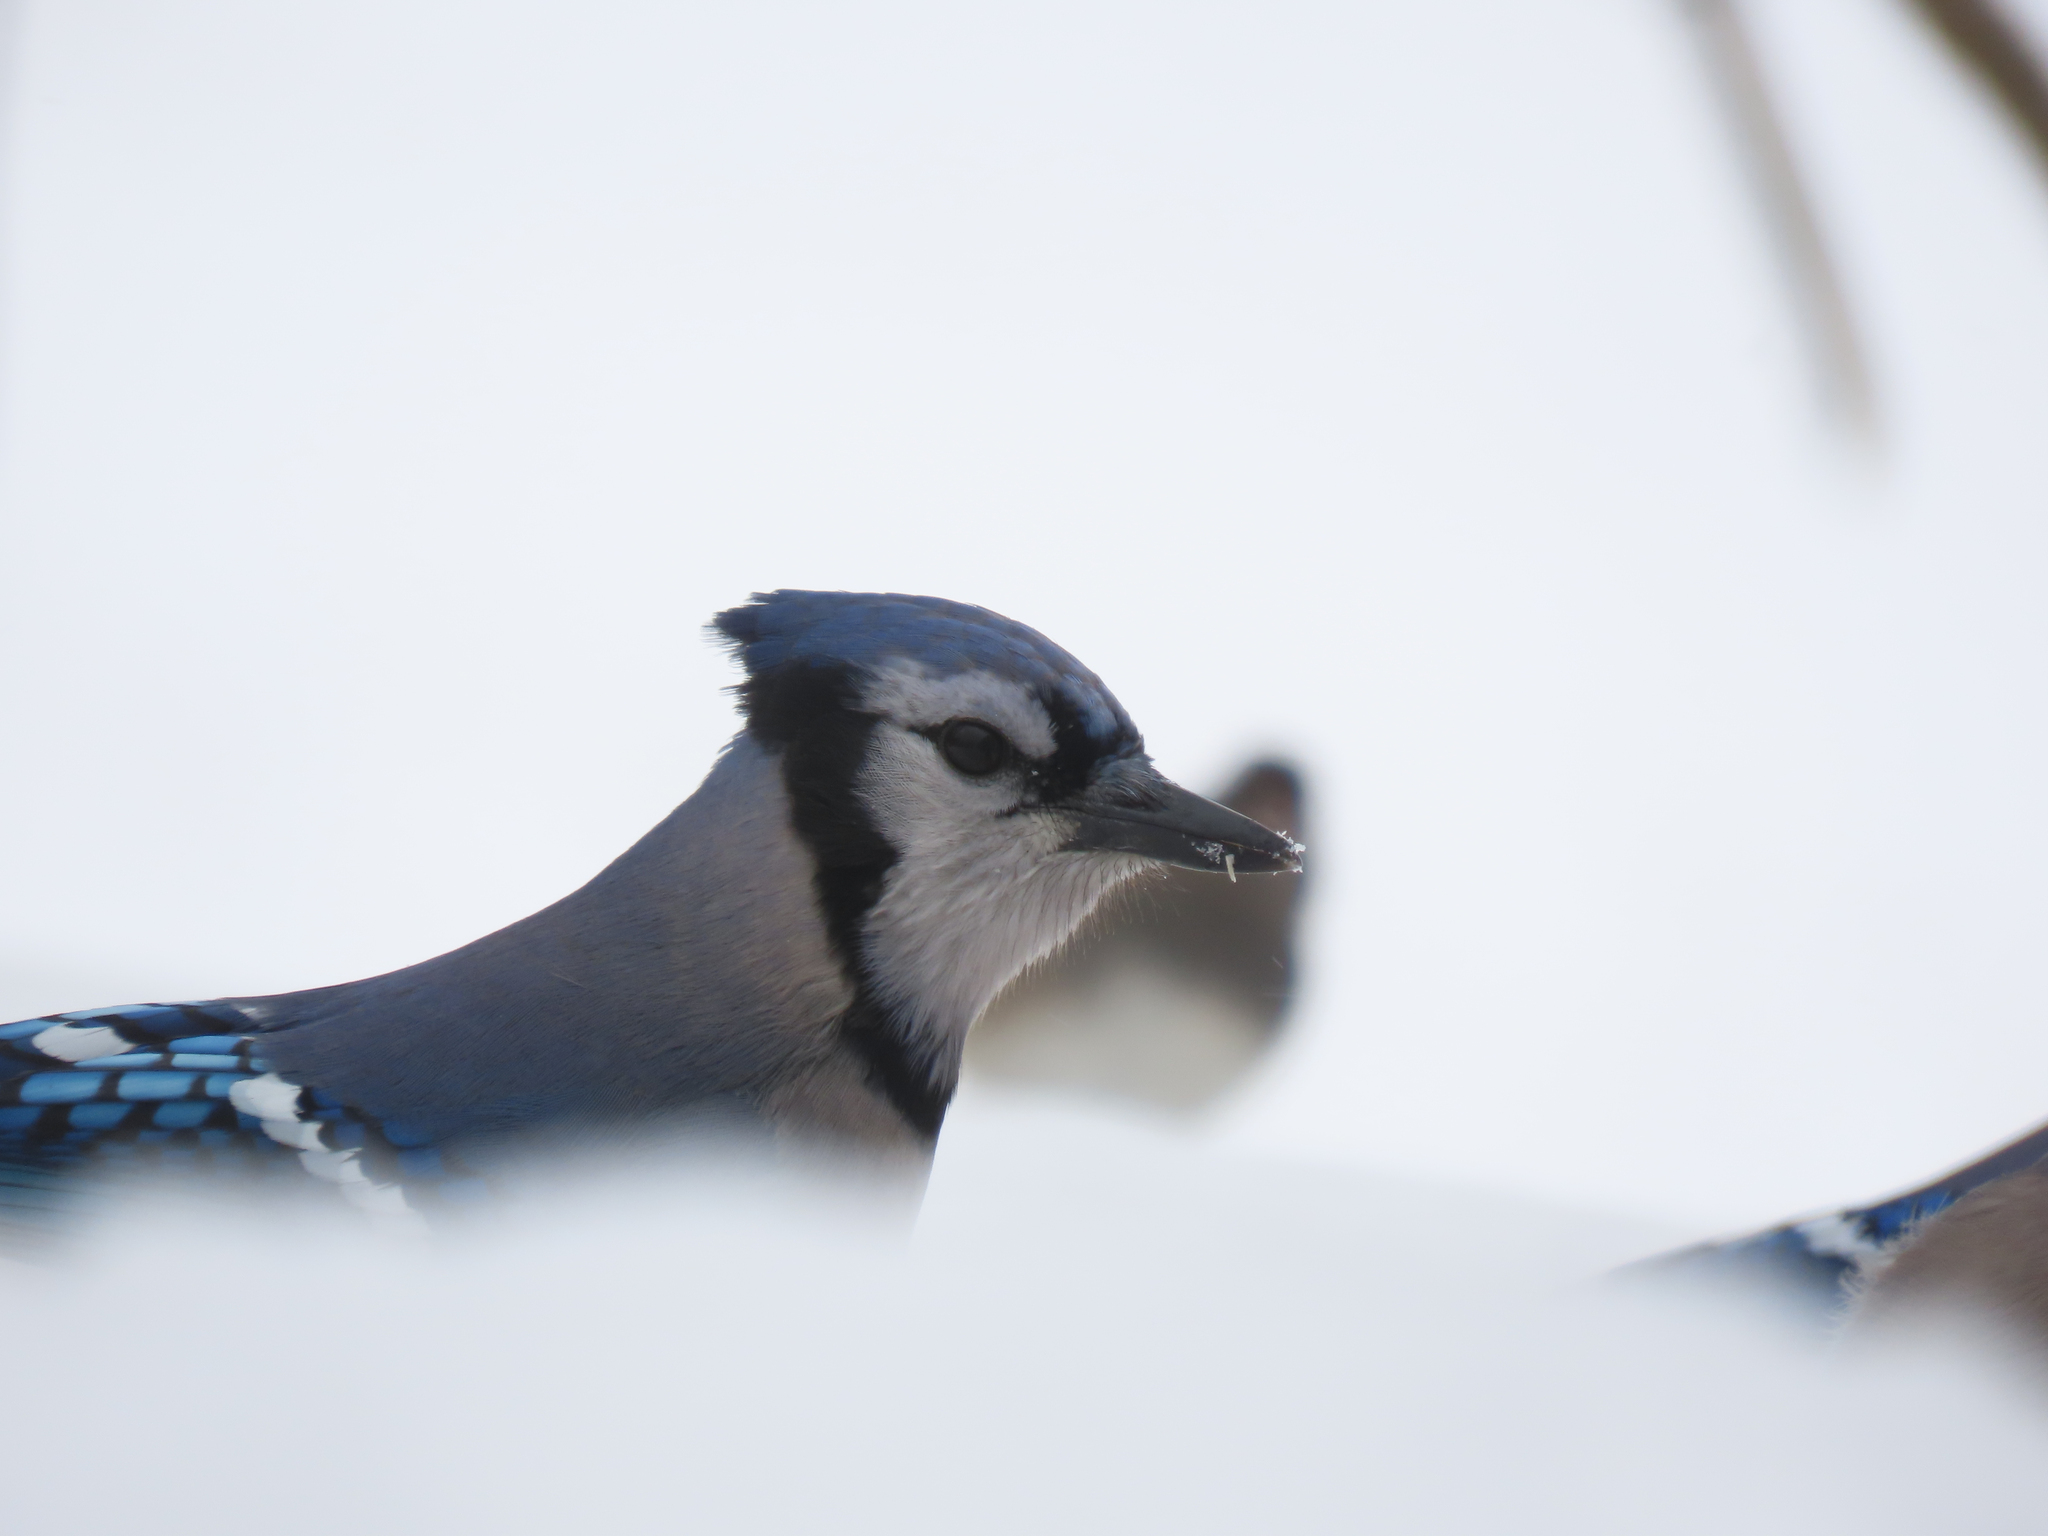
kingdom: Animalia
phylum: Chordata
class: Aves
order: Passeriformes
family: Corvidae
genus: Cyanocitta
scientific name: Cyanocitta cristata
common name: Blue jay
